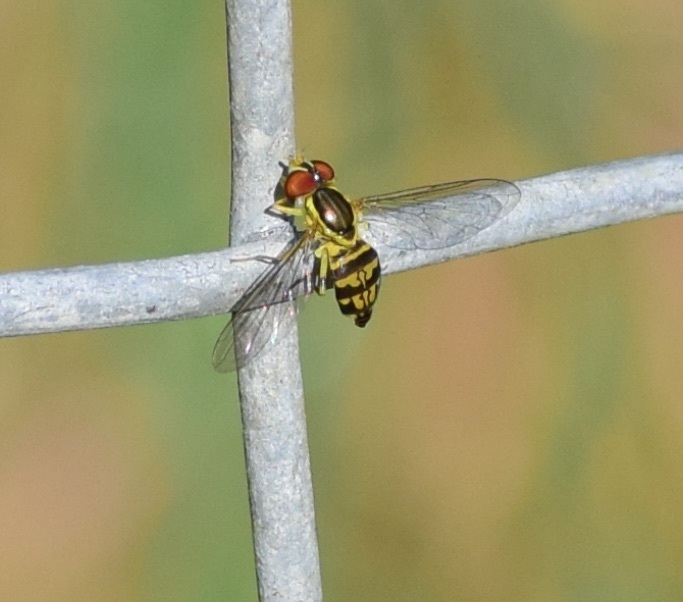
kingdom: Animalia
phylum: Arthropoda
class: Insecta
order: Diptera
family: Syrphidae
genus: Toxomerus
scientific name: Toxomerus geminatus
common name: Eastern calligrapher
